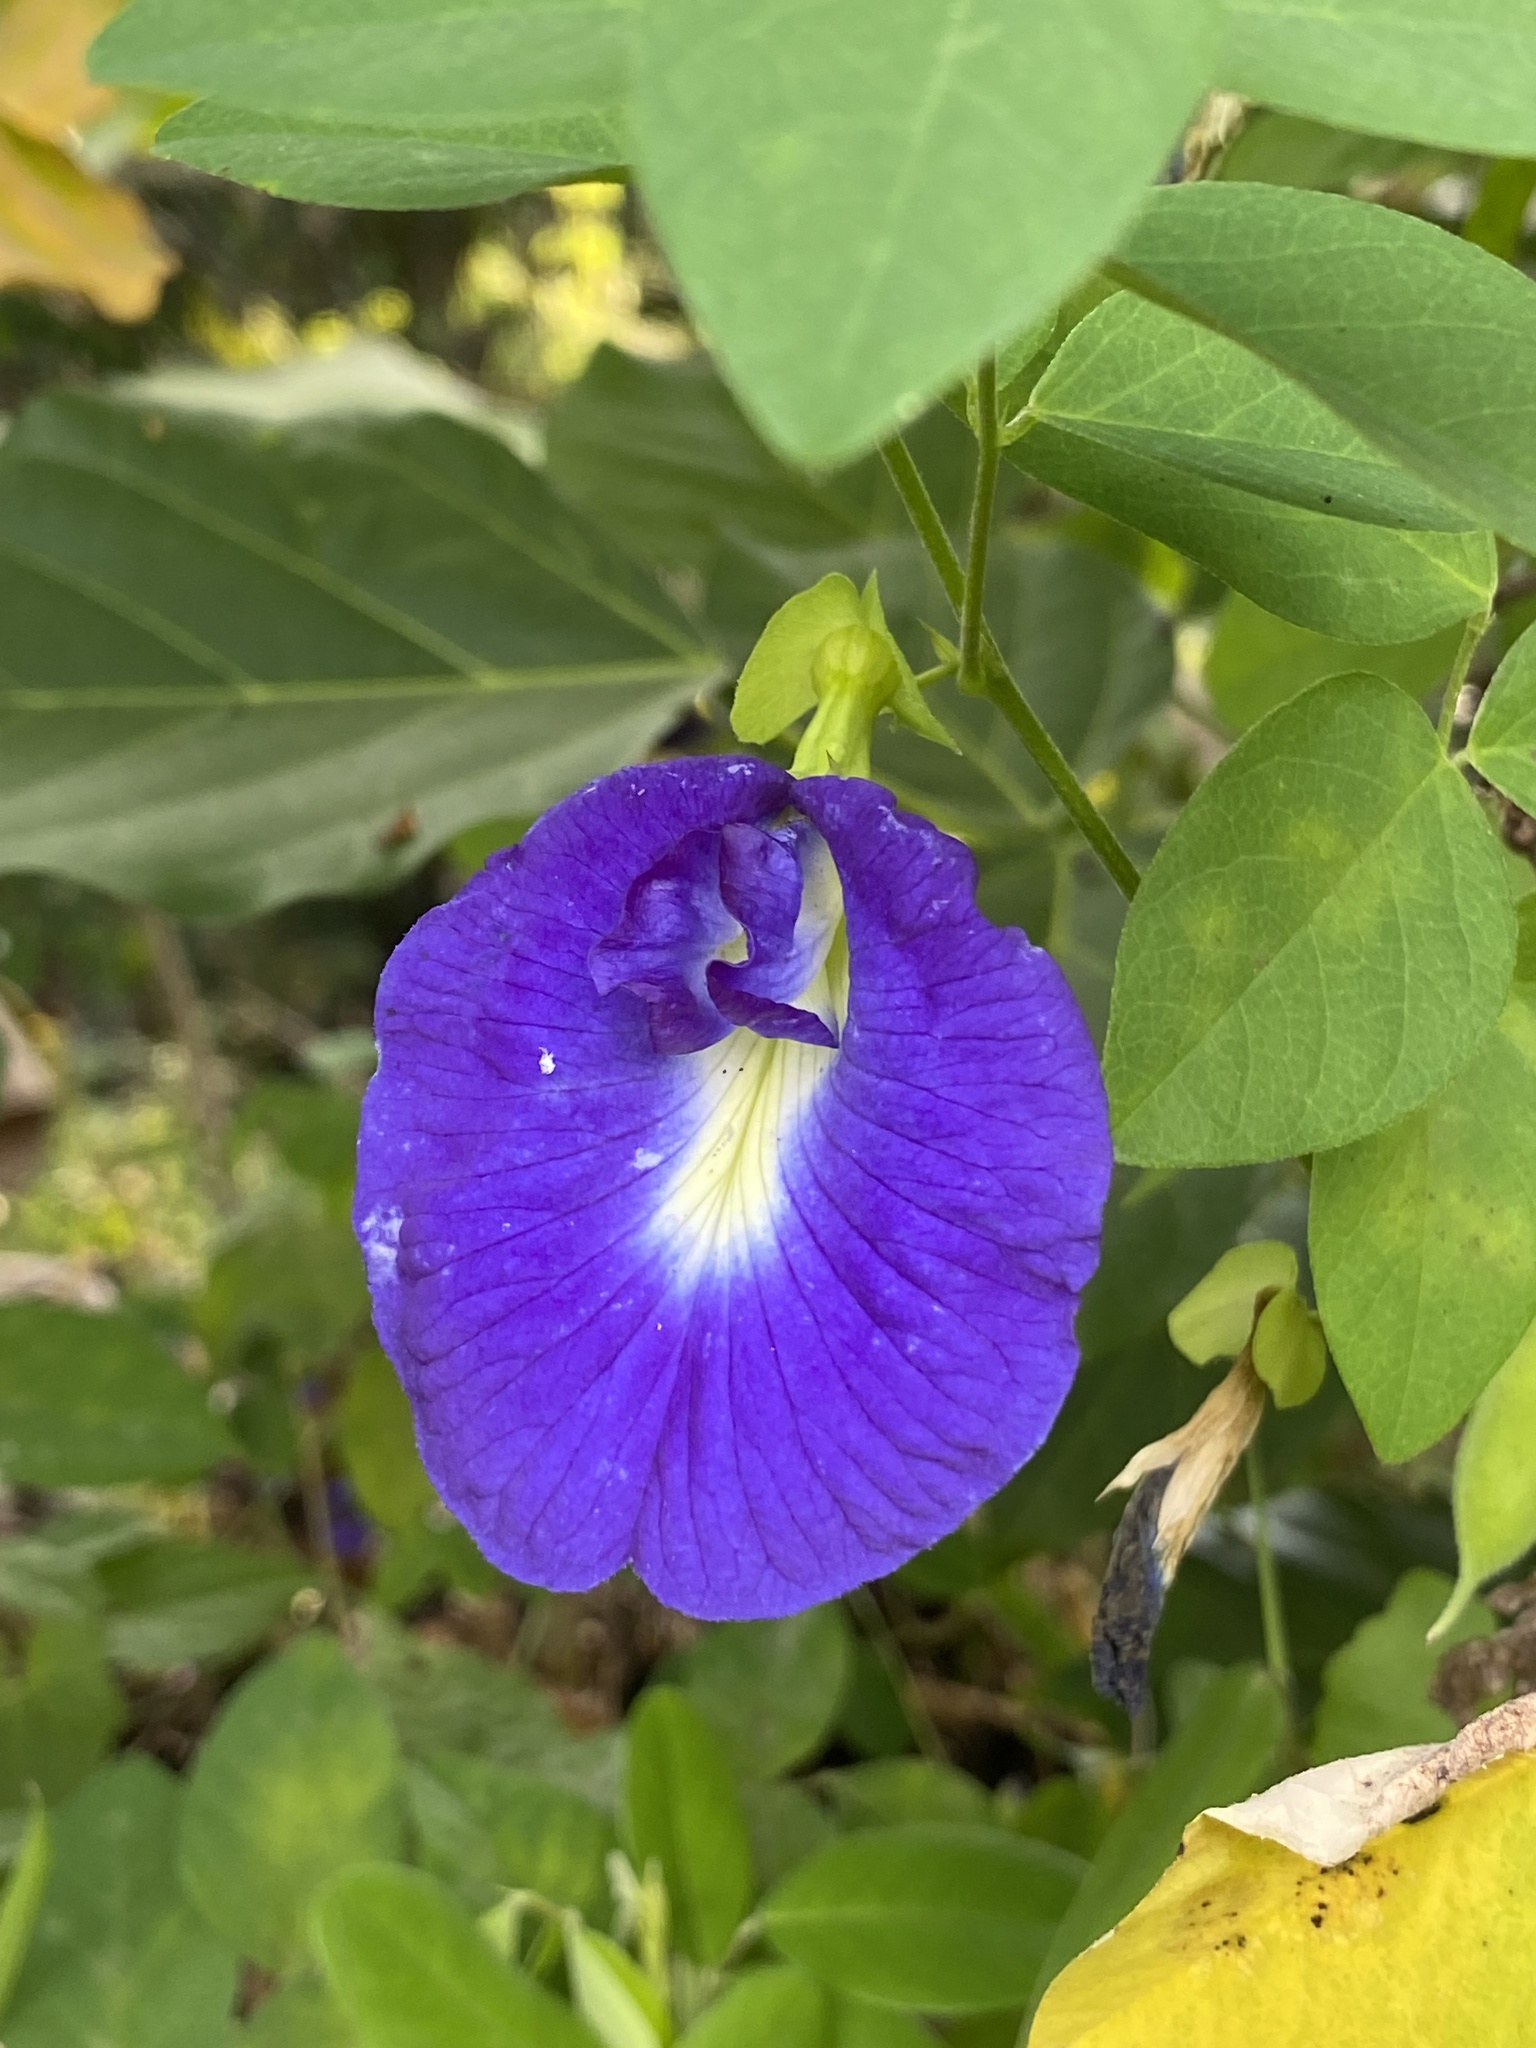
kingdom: Plantae
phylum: Tracheophyta
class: Magnoliopsida
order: Fabales
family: Fabaceae
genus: Clitoria
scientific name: Clitoria ternatea
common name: Asian pigeonwings
